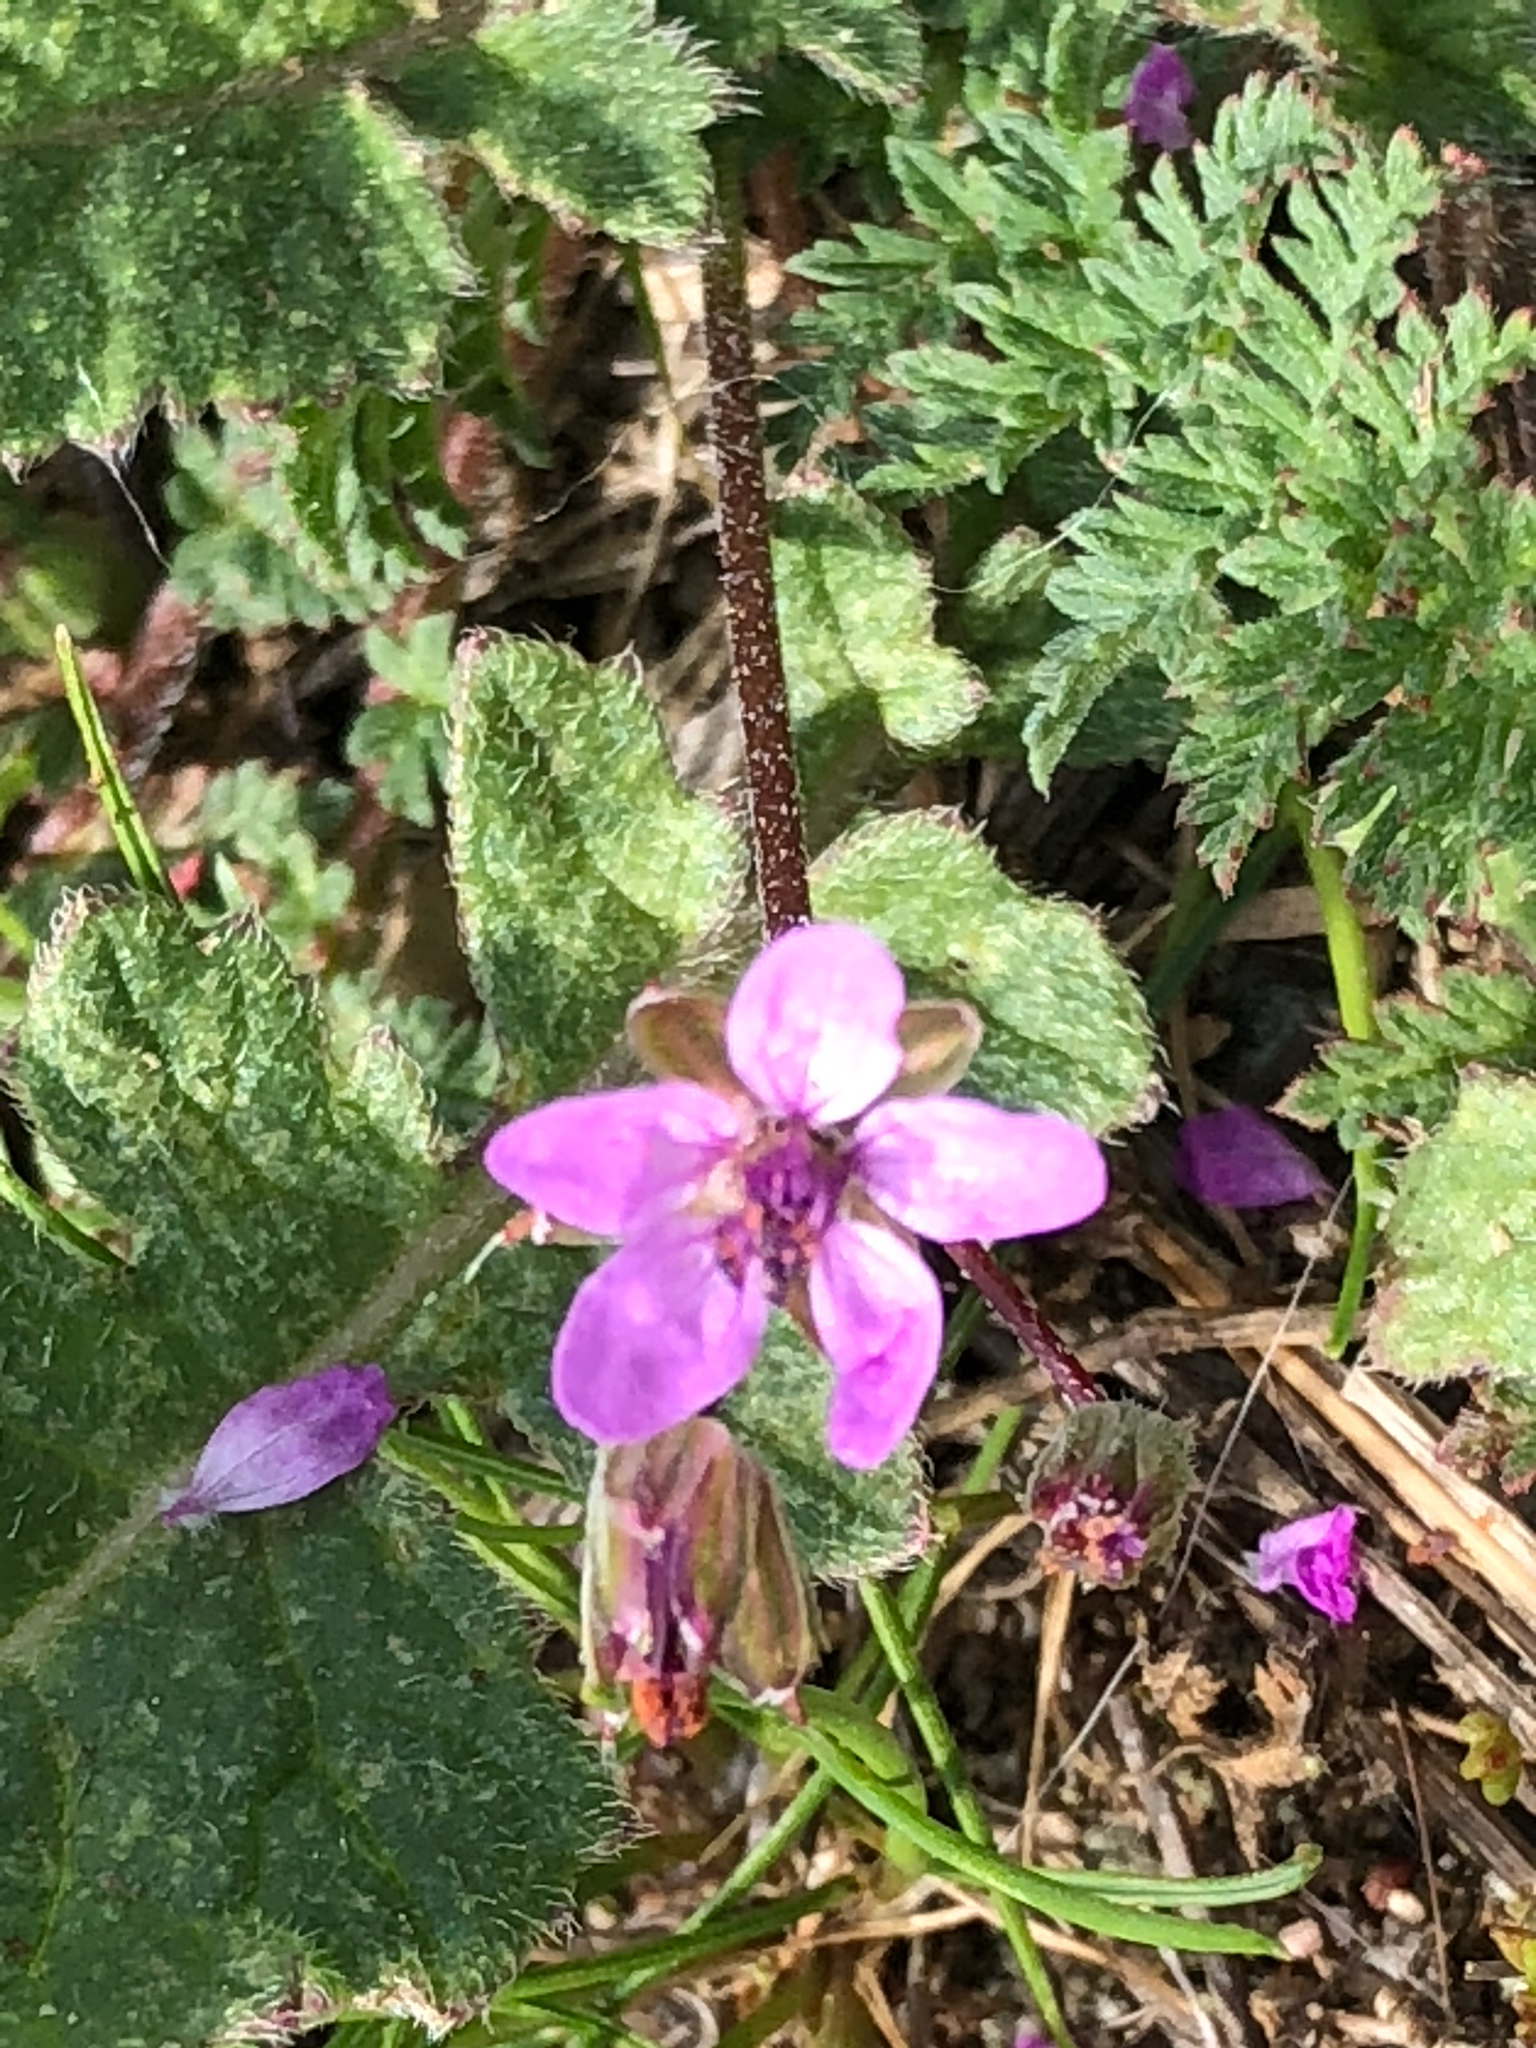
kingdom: Plantae
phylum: Tracheophyta
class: Magnoliopsida
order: Geraniales
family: Geraniaceae
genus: Erodium
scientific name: Erodium cicutarium
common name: Common stork's-bill
